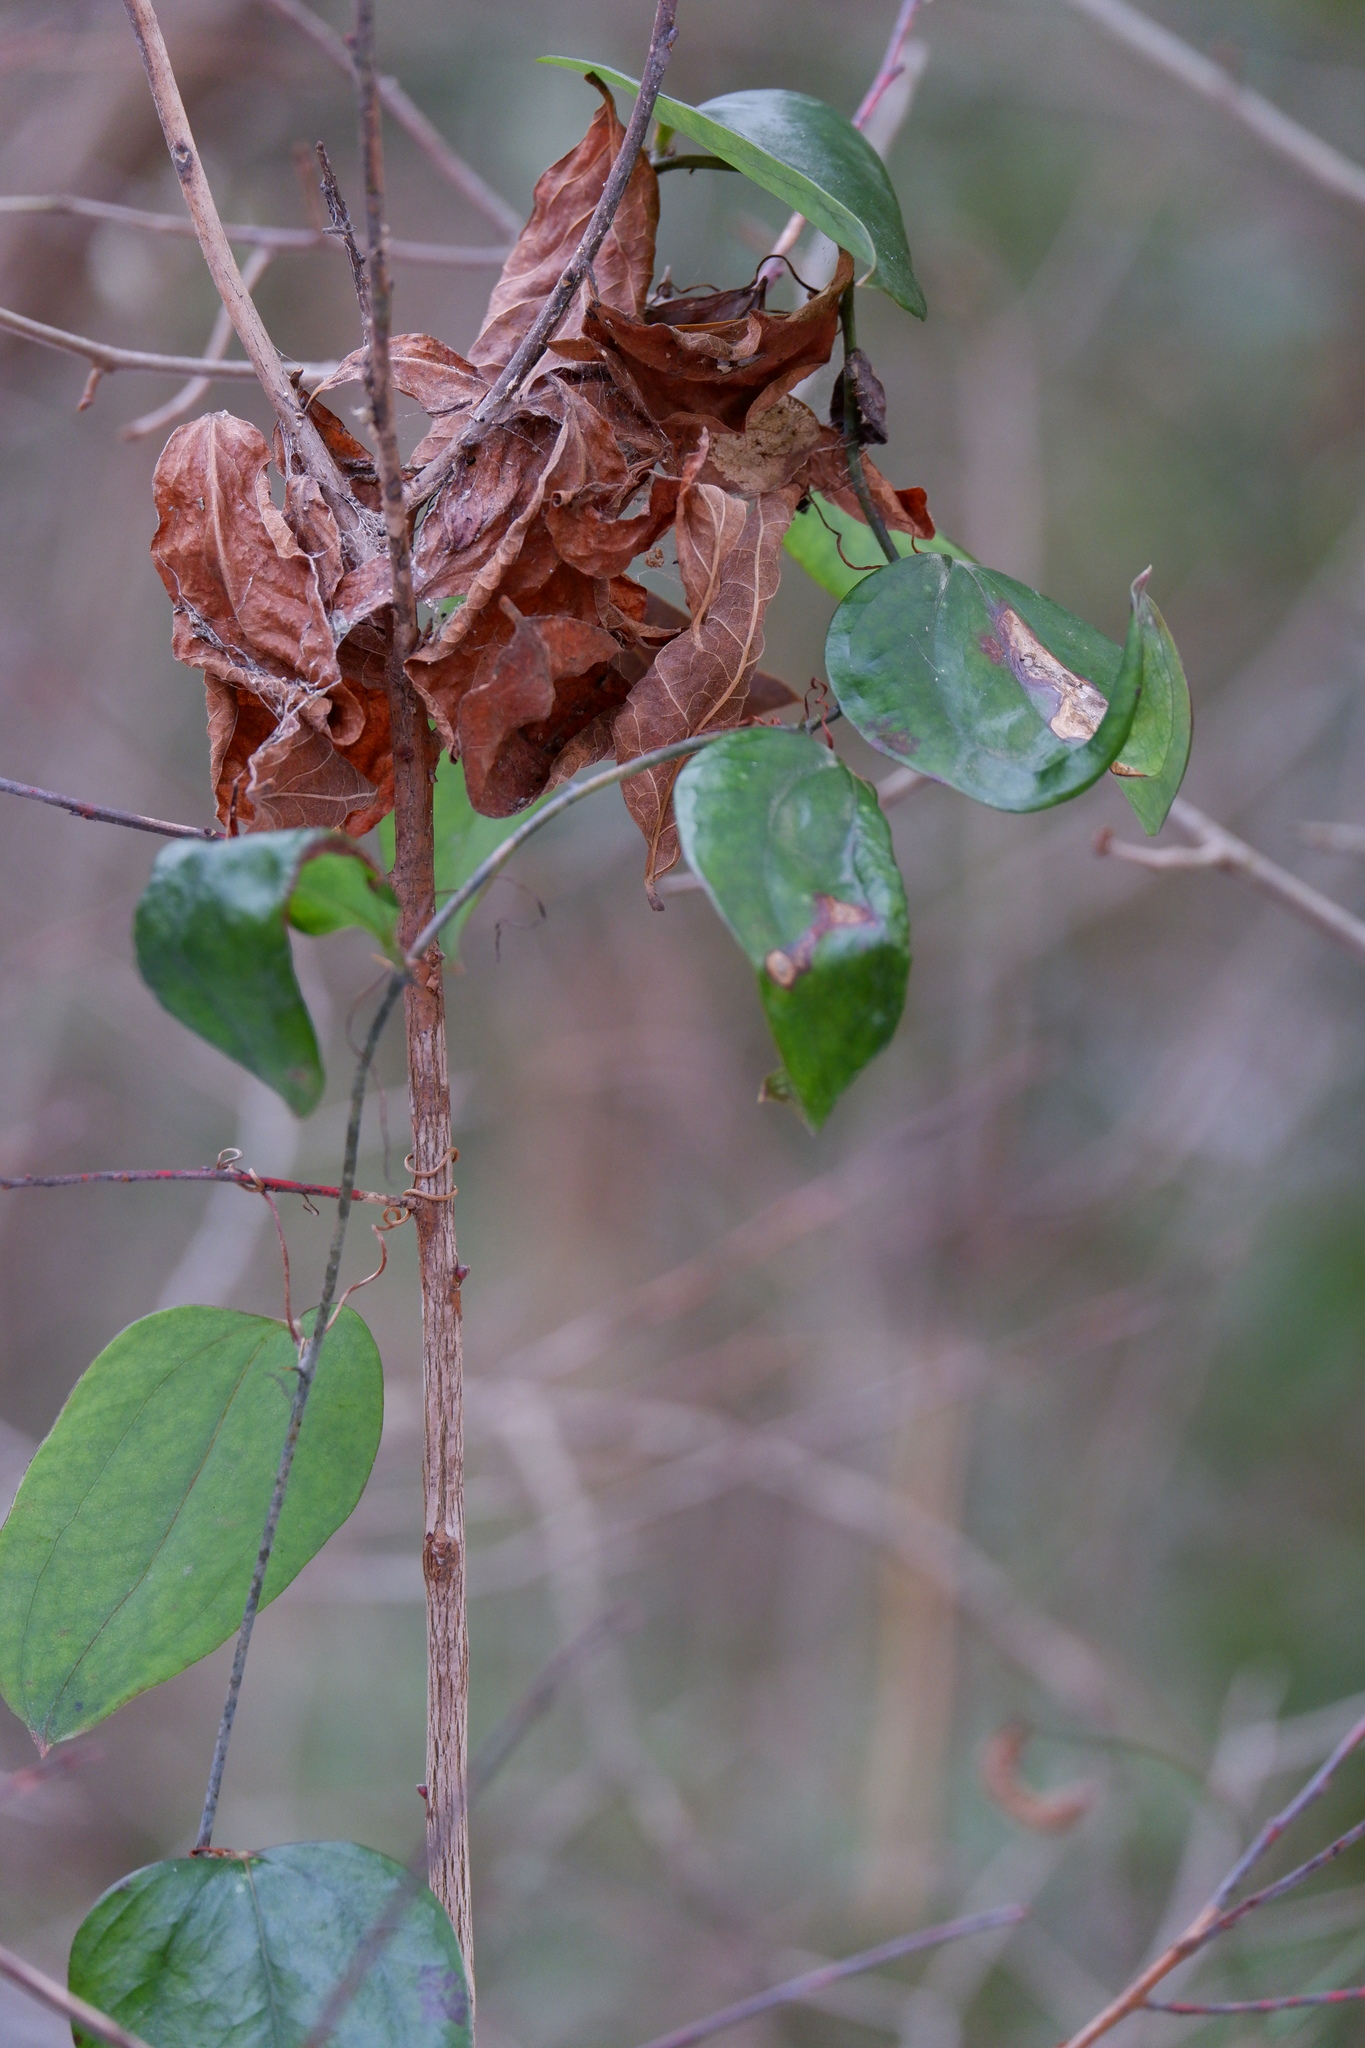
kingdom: Plantae
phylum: Tracheophyta
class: Liliopsida
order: Liliales
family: Smilacaceae
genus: Smilax
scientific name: Smilax glauca
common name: Cat greenbrier
